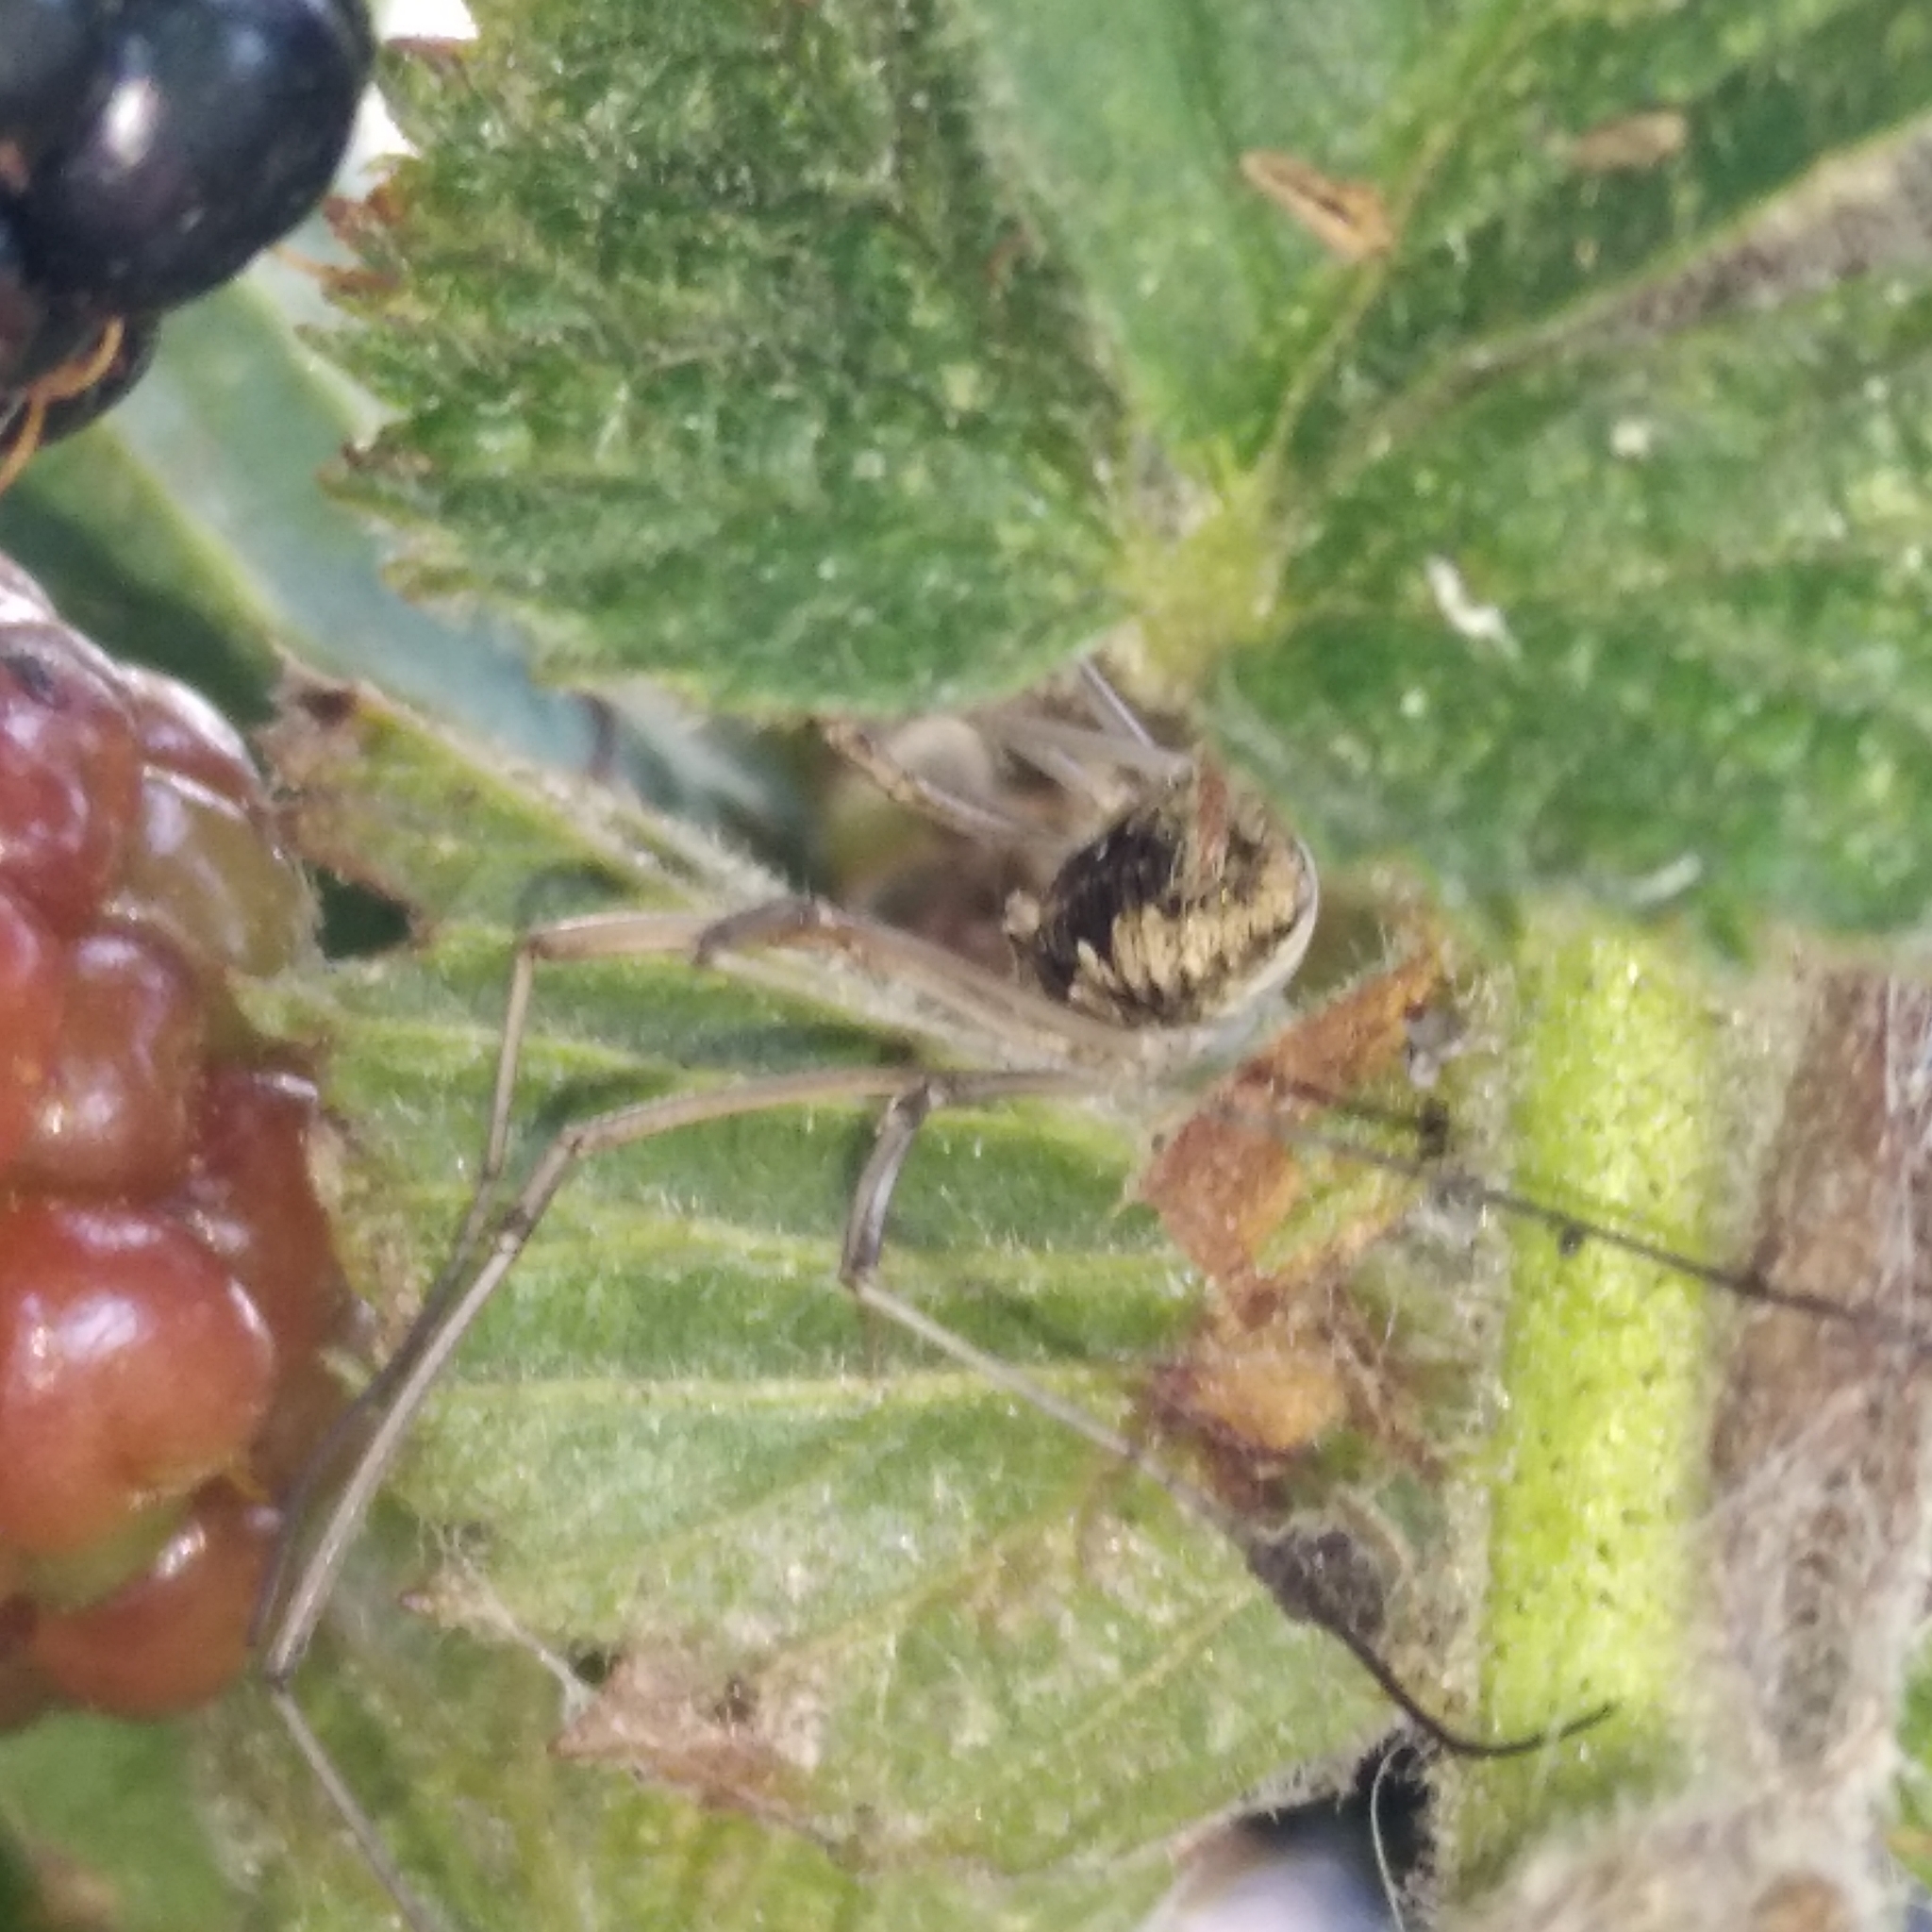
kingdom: Animalia
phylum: Arthropoda
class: Arachnida
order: Opiliones
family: Phalangiidae
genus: Phalangium
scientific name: Phalangium opilio
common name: Daddy longleg
